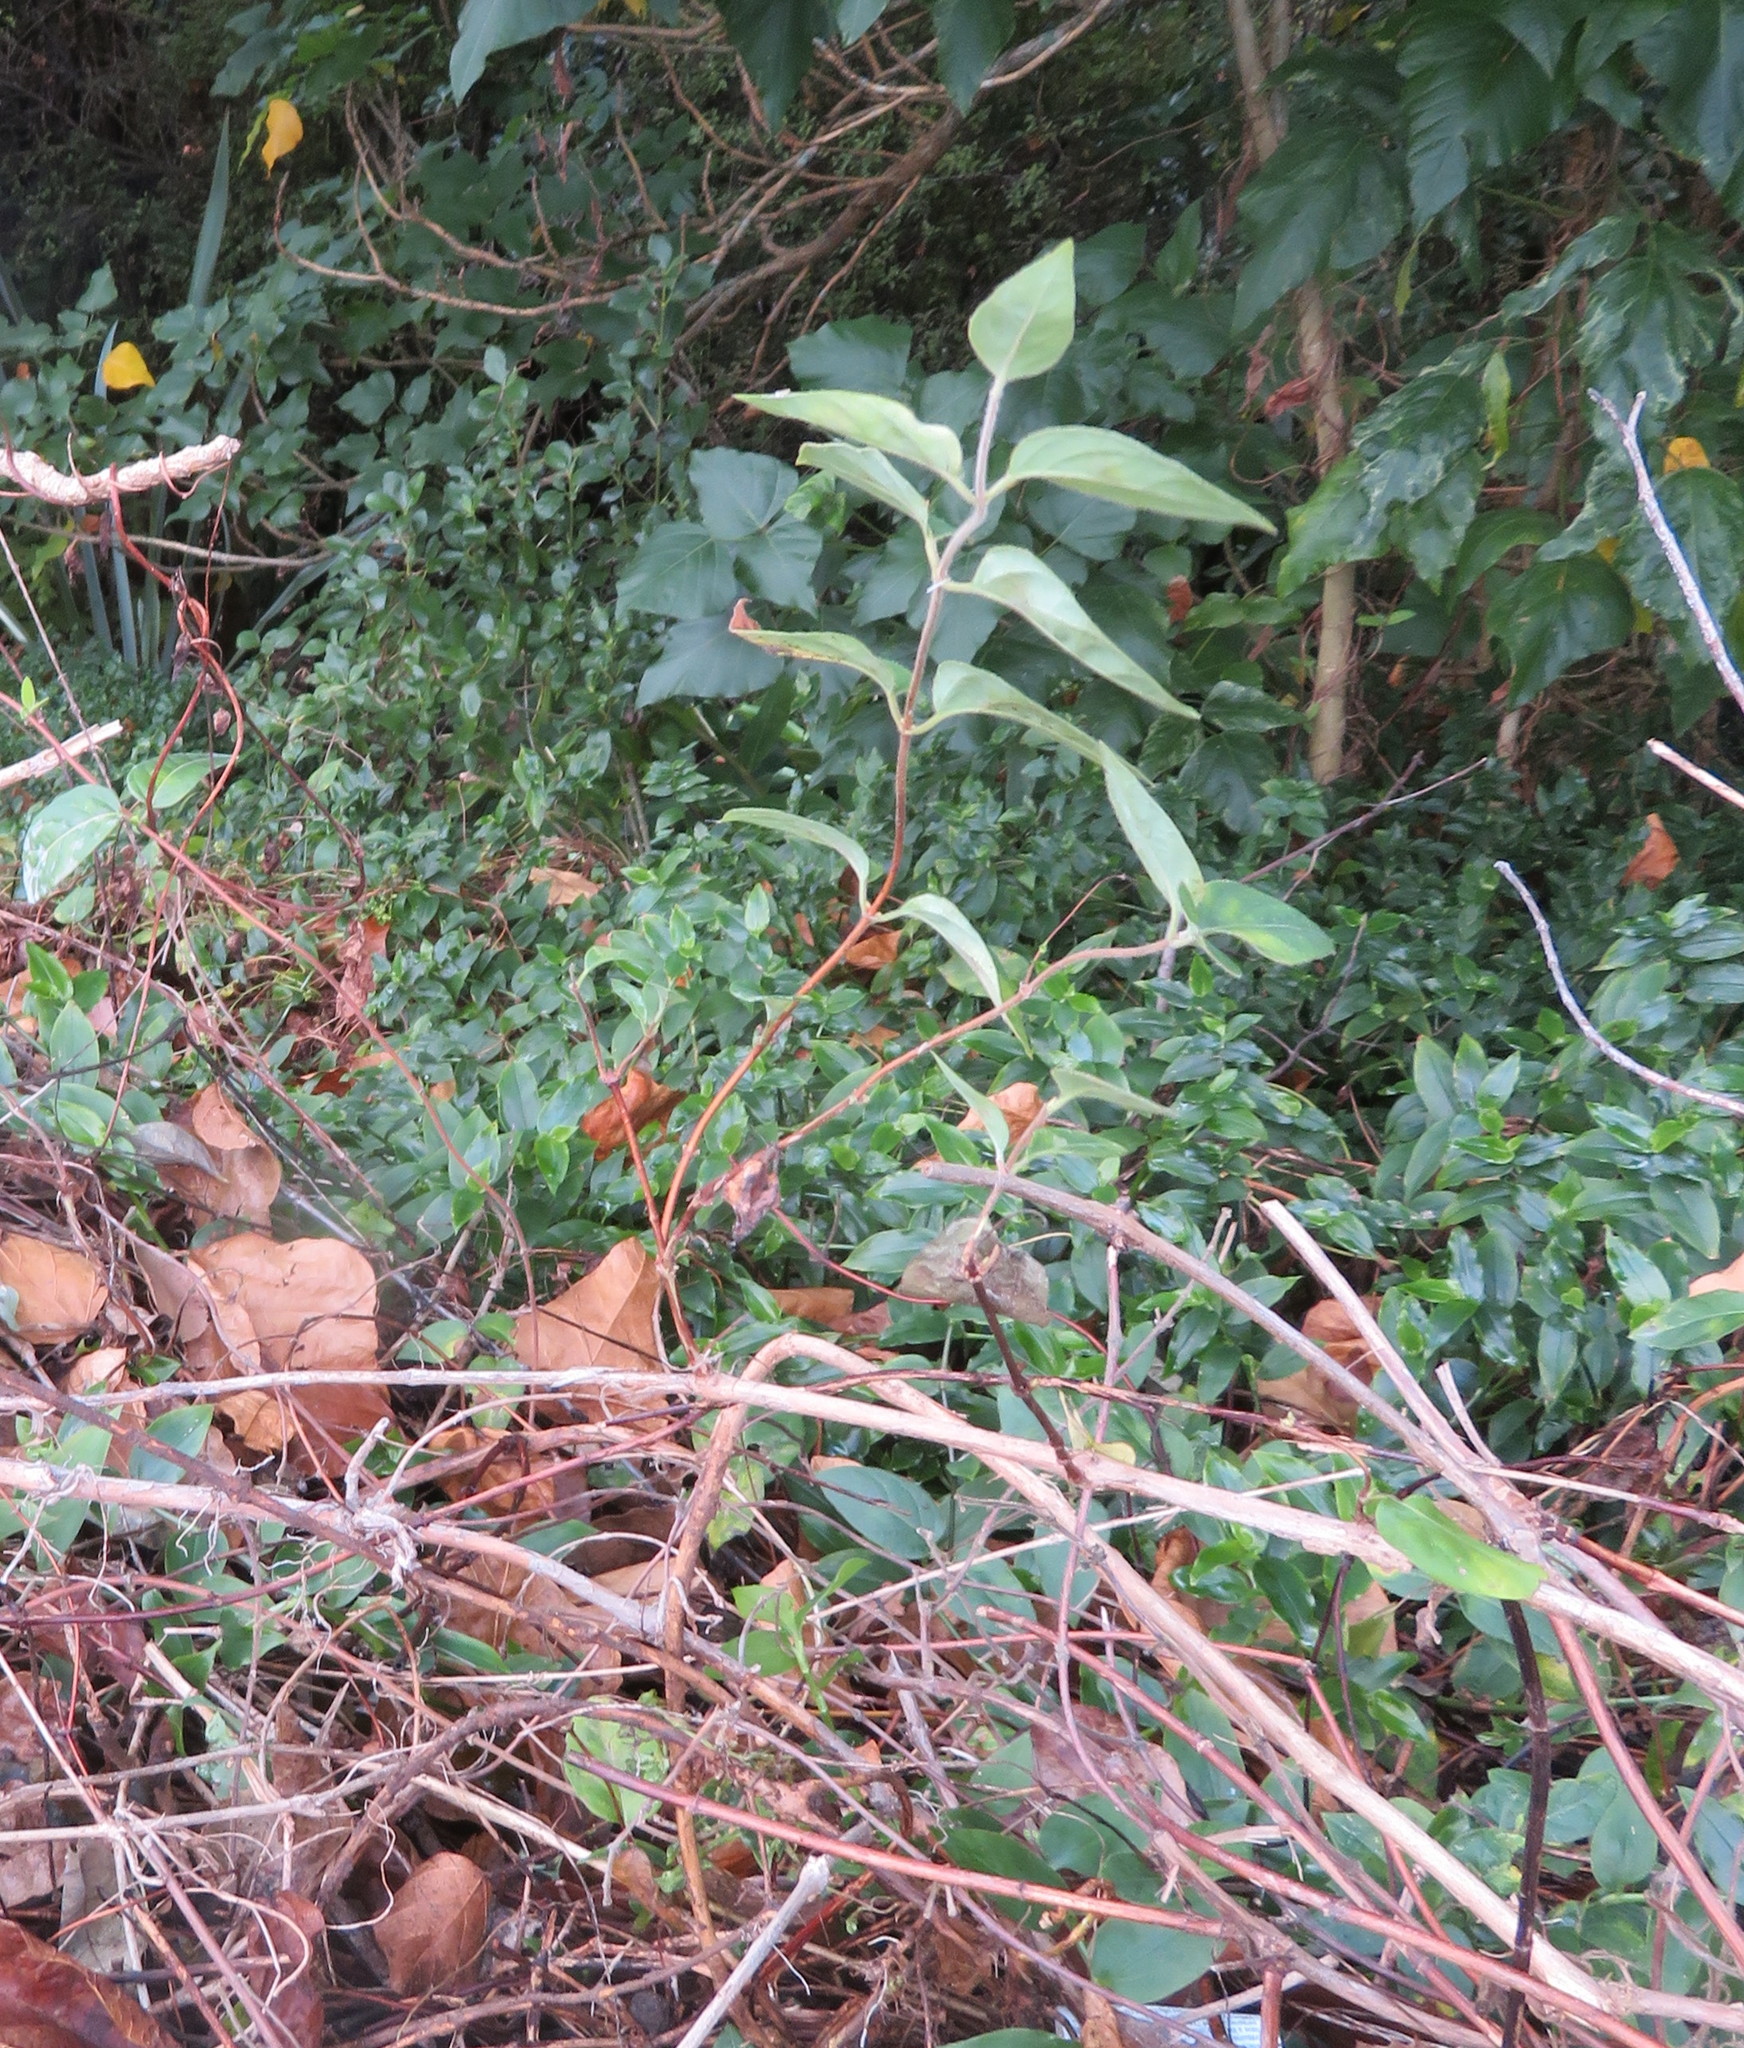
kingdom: Plantae
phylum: Tracheophyta
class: Liliopsida
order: Commelinales
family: Commelinaceae
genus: Tradescantia
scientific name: Tradescantia fluminensis
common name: Wandering-jew
